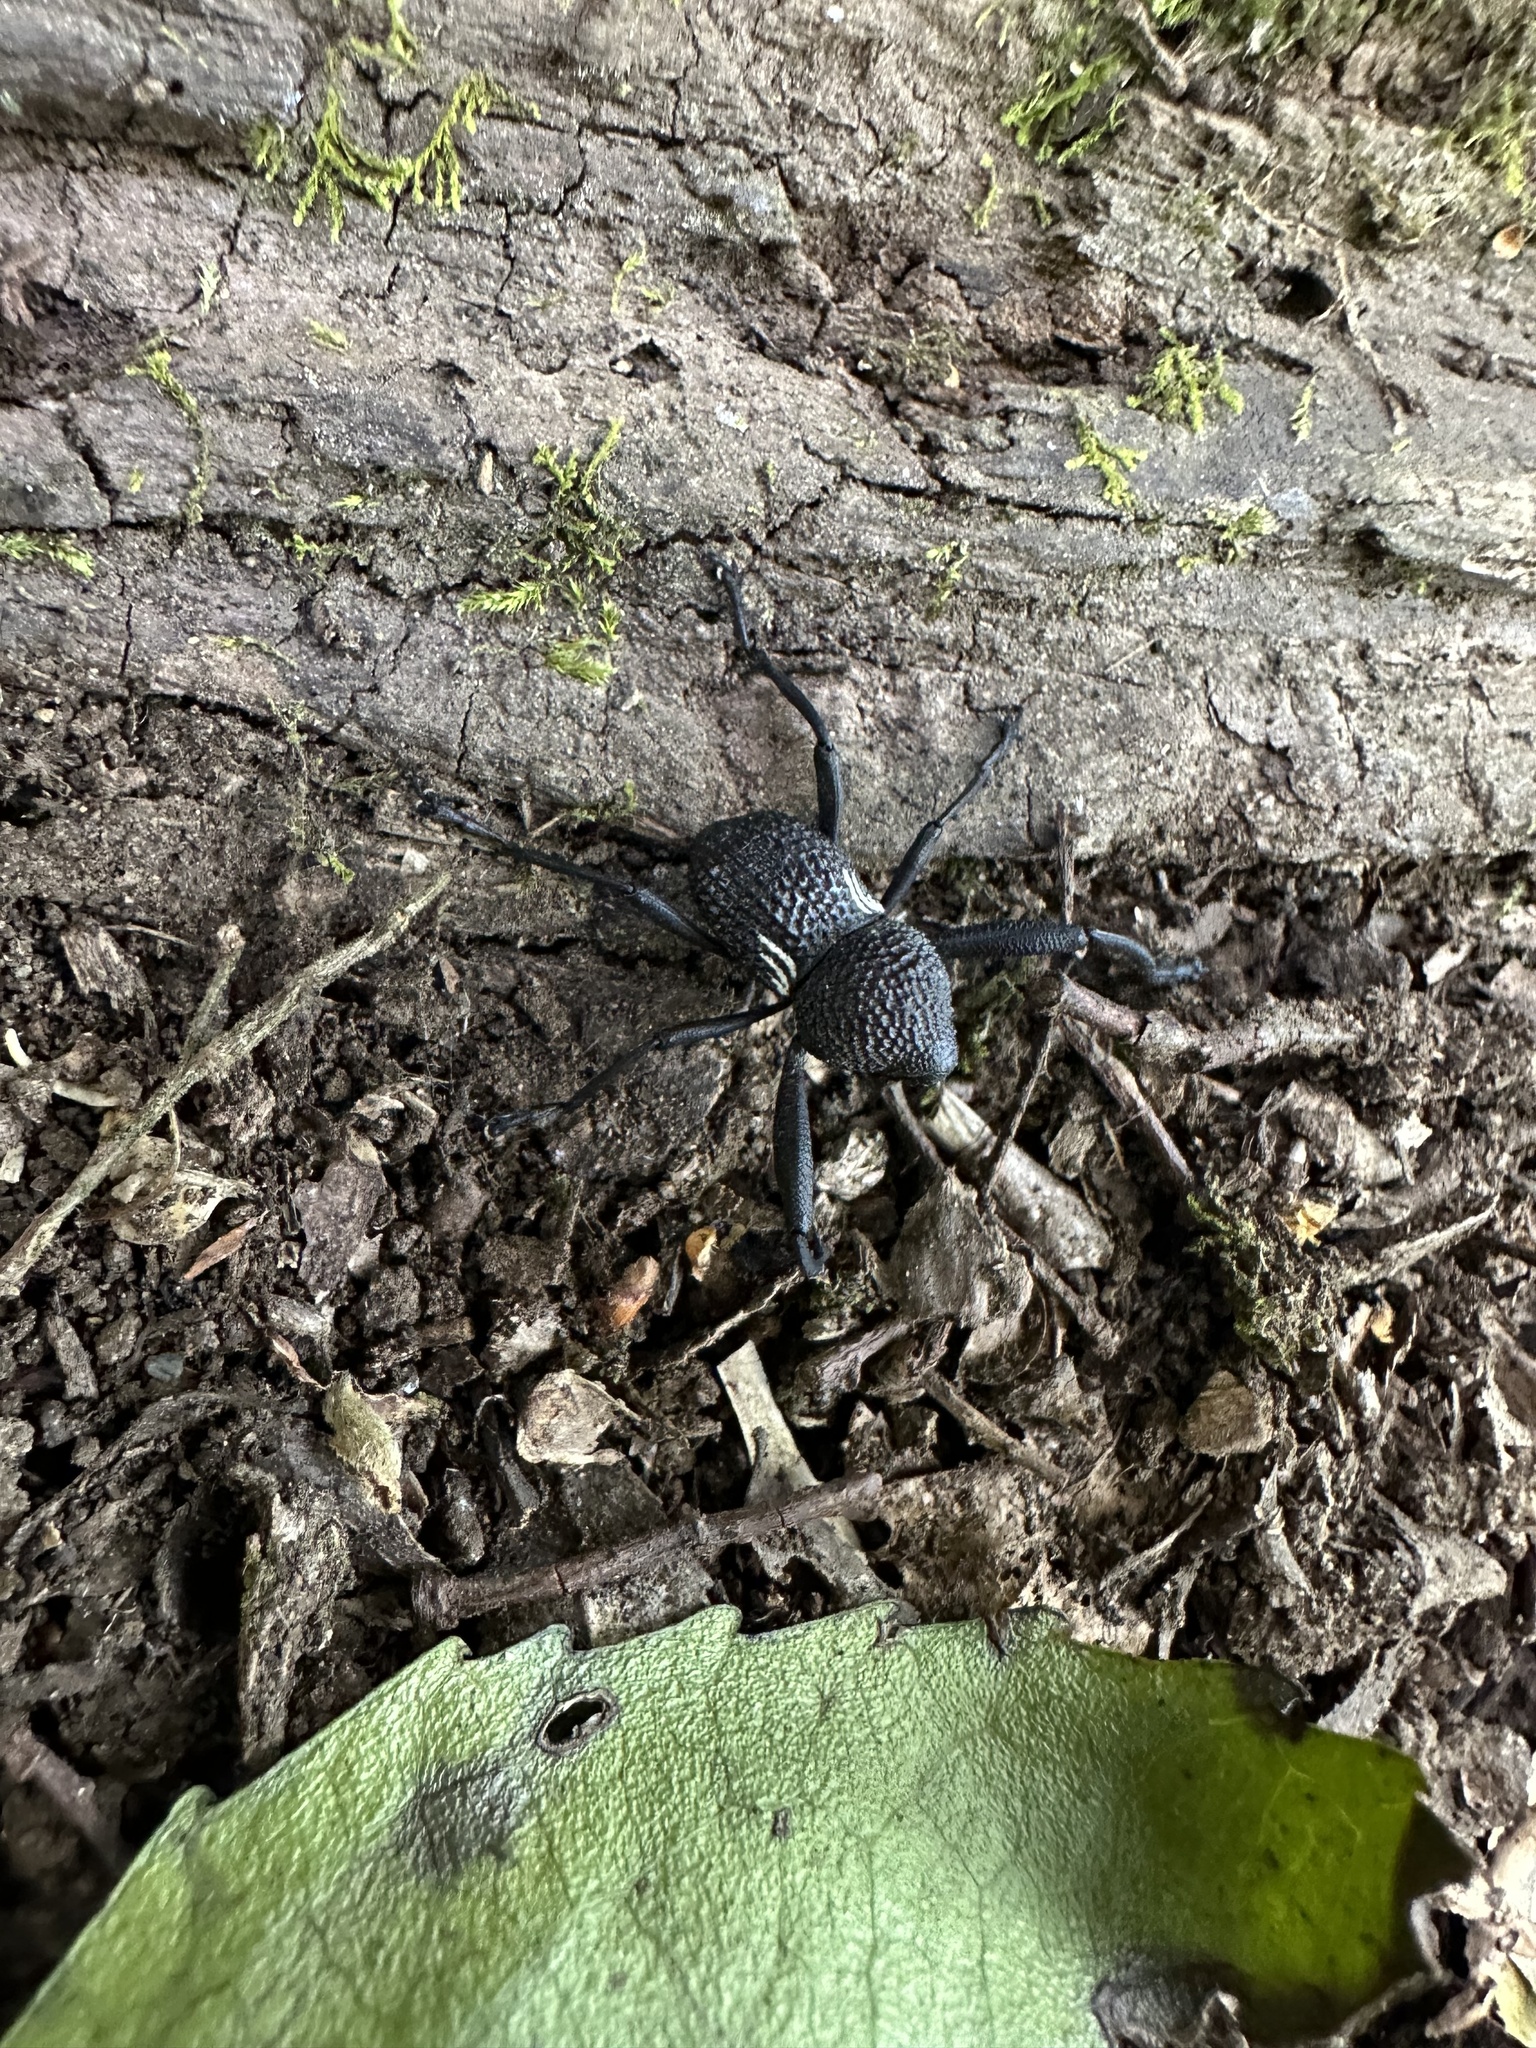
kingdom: Animalia
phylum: Arthropoda
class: Insecta
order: Coleoptera
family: Curculionidae
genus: Rhyephenes
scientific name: Rhyephenes humeralis
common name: Araè±ita chilena del pino
